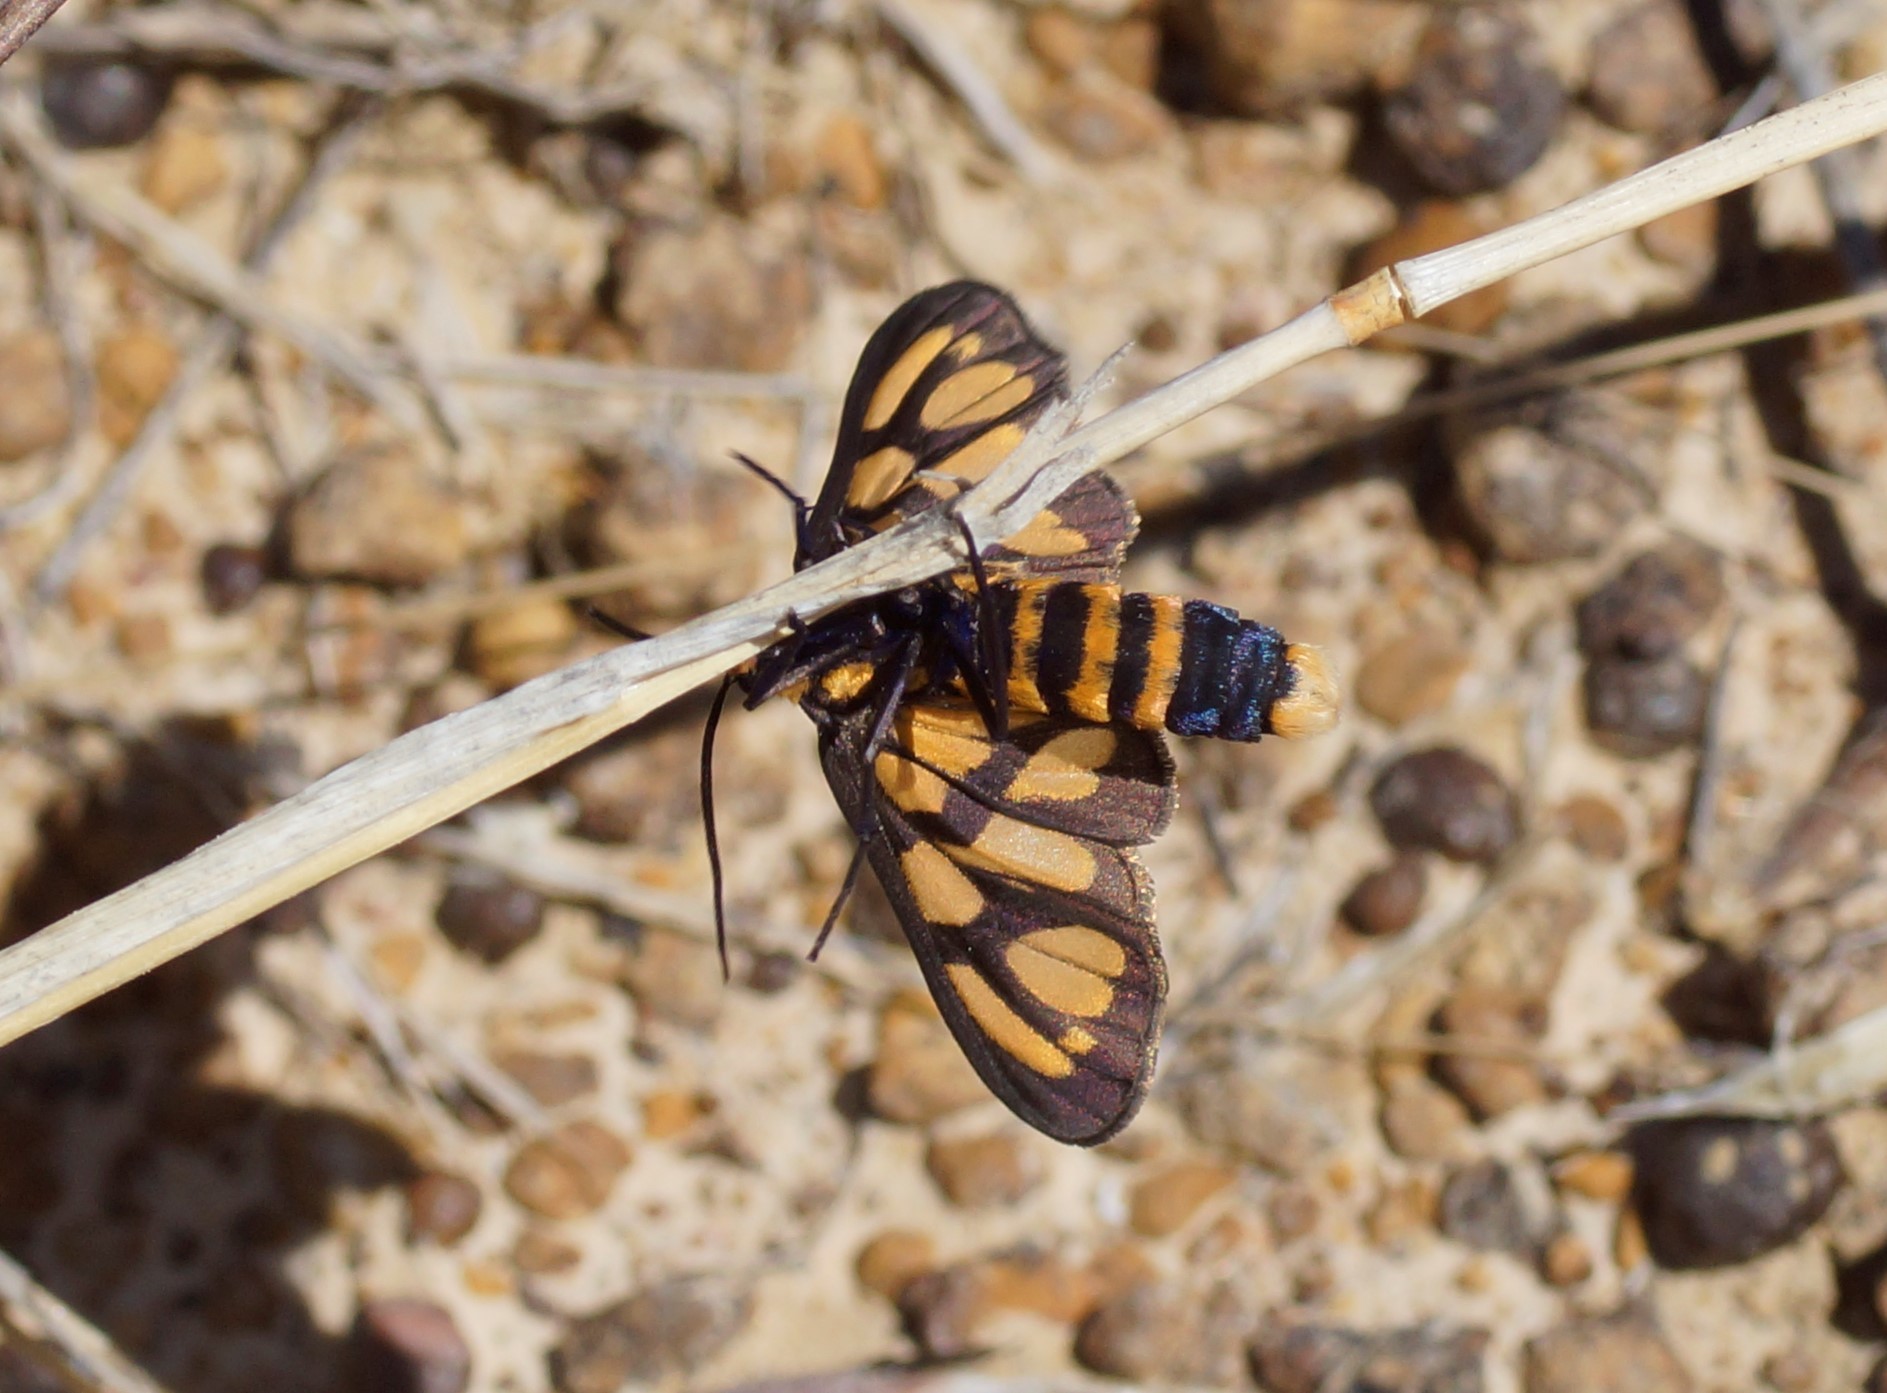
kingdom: Animalia
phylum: Arthropoda
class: Insecta
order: Lepidoptera
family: Erebidae
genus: Amata
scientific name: Amata aperta
